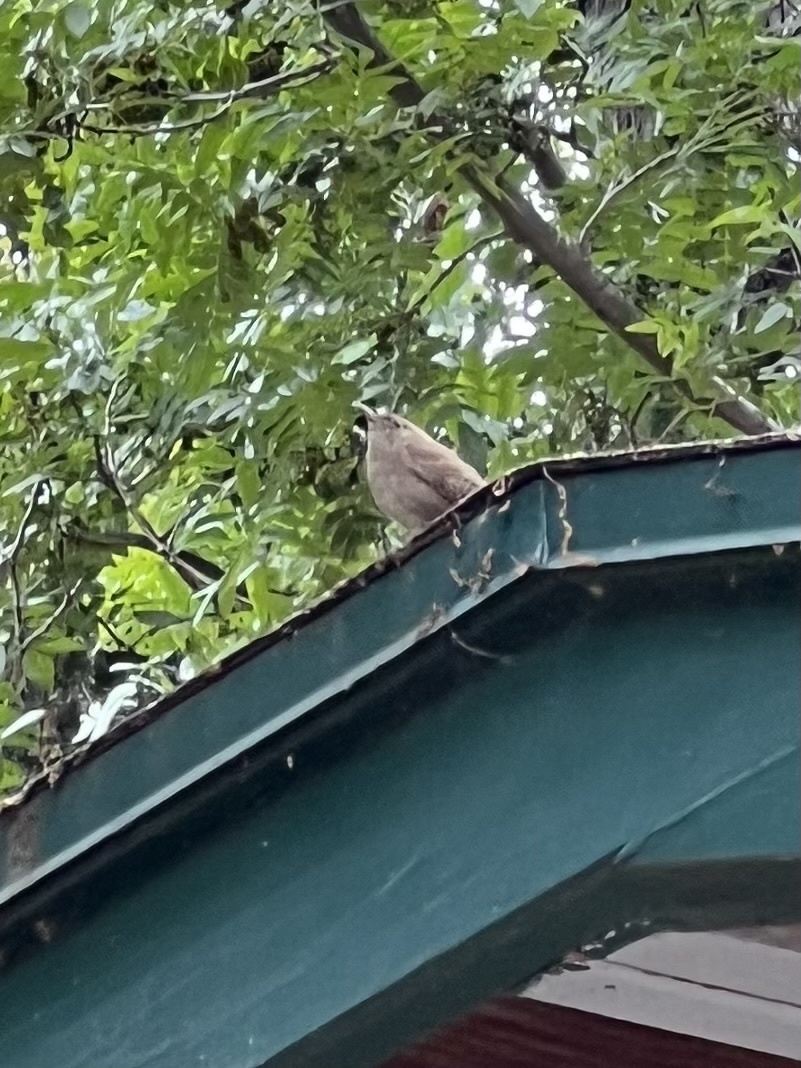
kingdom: Animalia
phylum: Chordata
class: Aves
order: Passeriformes
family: Troglodytidae
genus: Troglodytes
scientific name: Troglodytes aedon
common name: House wren
